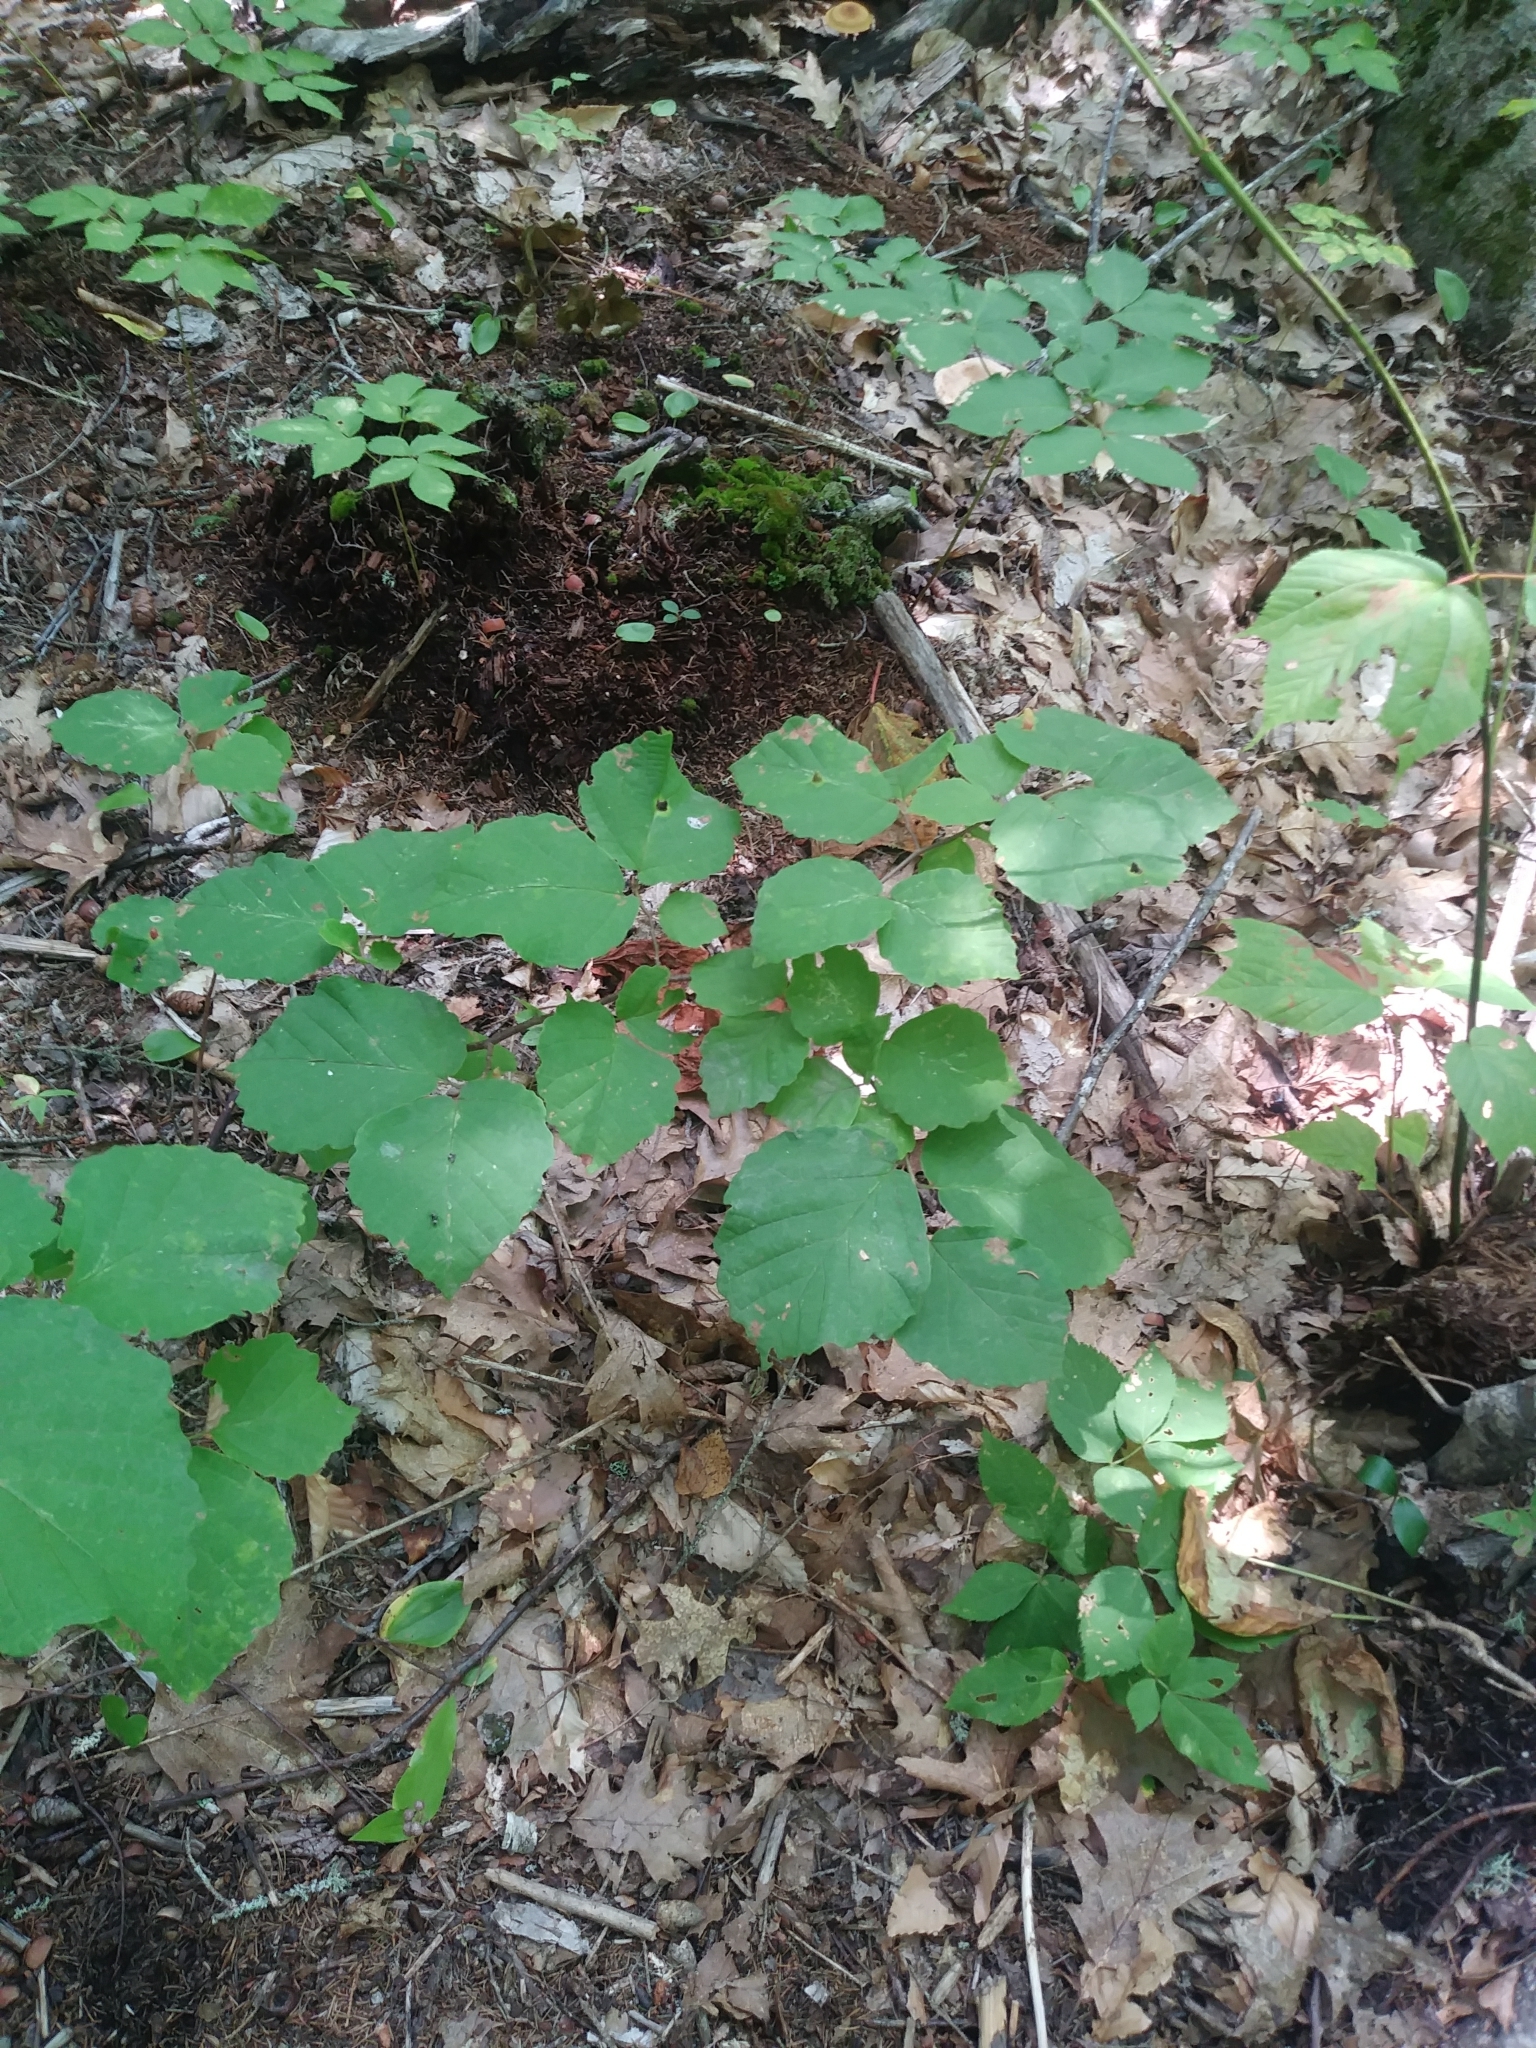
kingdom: Plantae
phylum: Tracheophyta
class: Magnoliopsida
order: Saxifragales
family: Hamamelidaceae
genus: Hamamelis
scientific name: Hamamelis virginiana
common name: Witch-hazel
